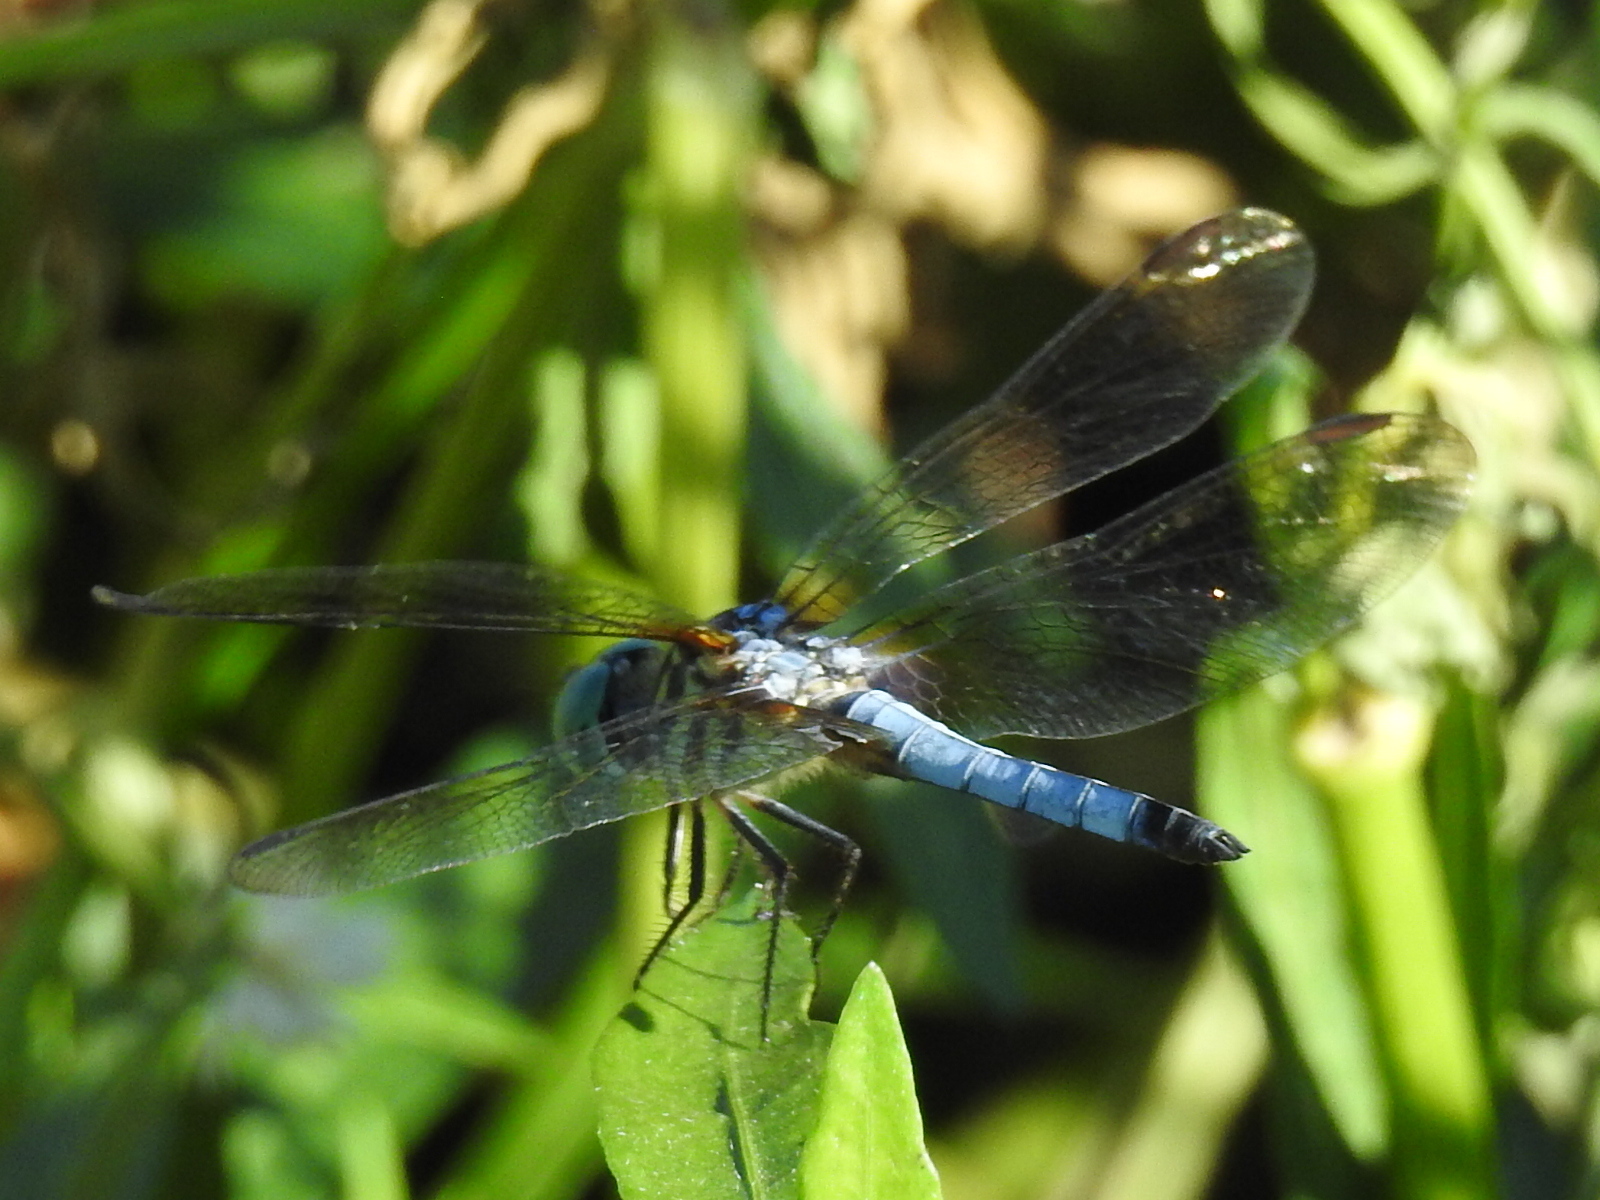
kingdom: Animalia
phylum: Arthropoda
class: Insecta
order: Odonata
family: Libellulidae
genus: Pachydiplax
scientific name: Pachydiplax longipennis
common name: Blue dasher
